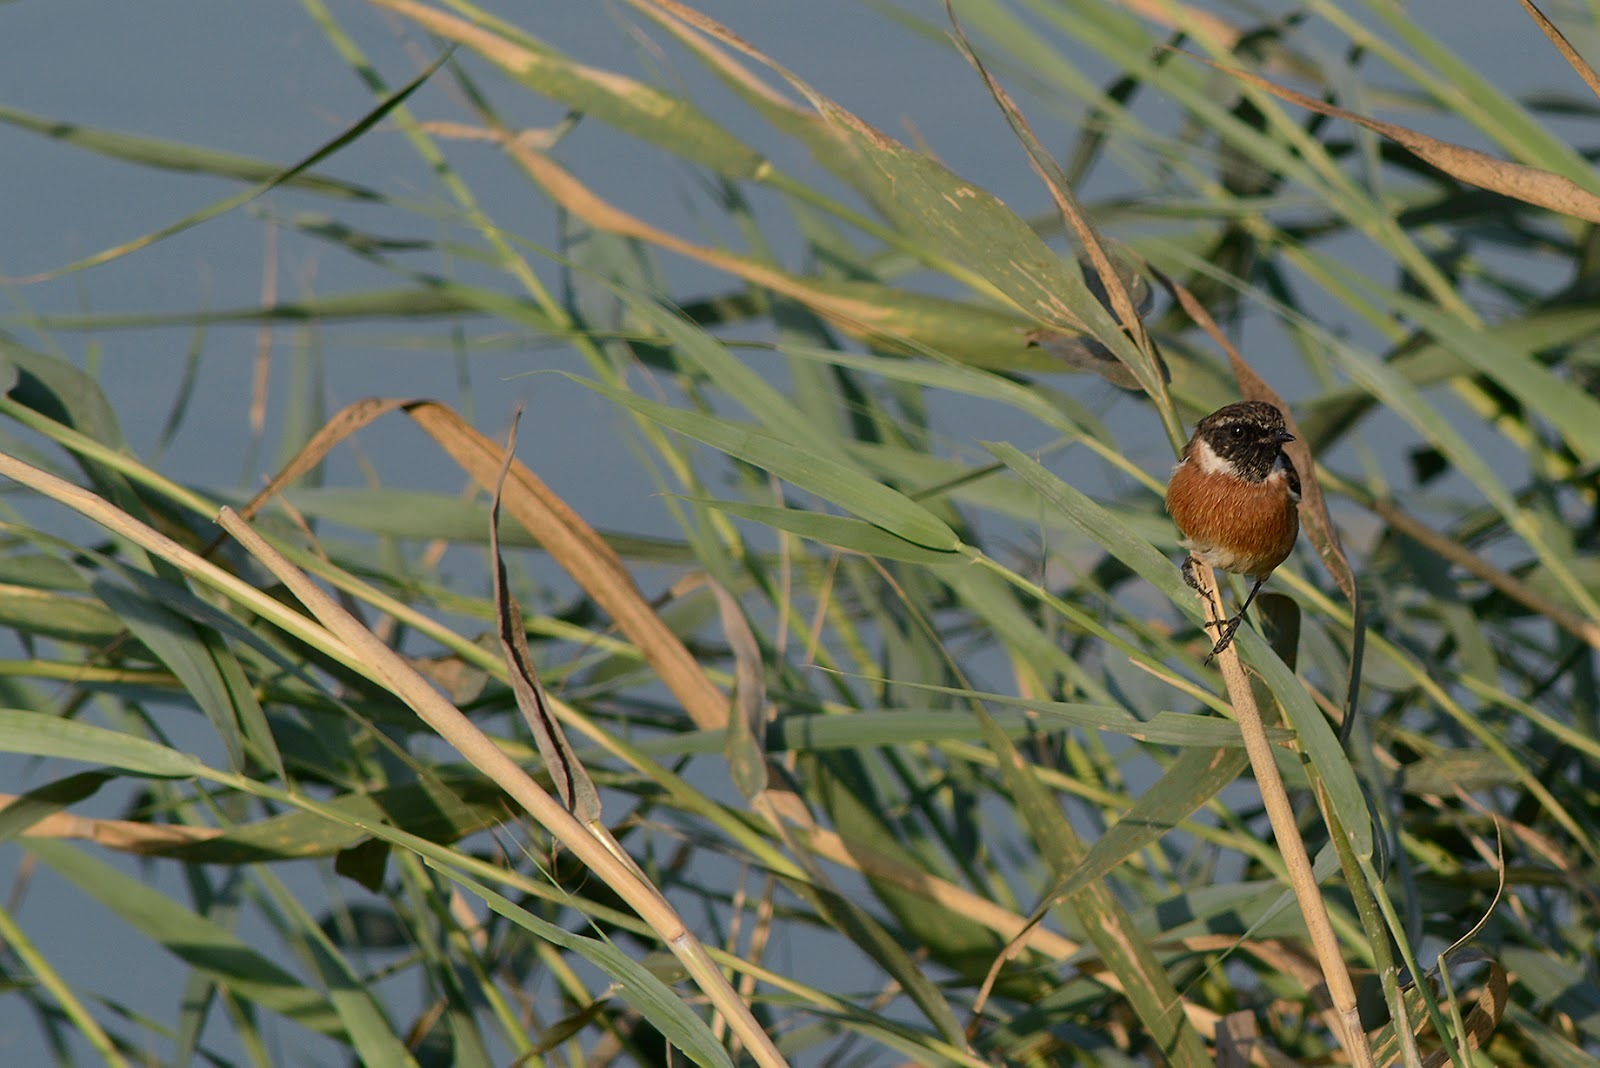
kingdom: Animalia
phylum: Chordata
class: Aves
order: Passeriformes
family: Muscicapidae
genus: Saxicola
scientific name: Saxicola rubicola
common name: European stonechat
